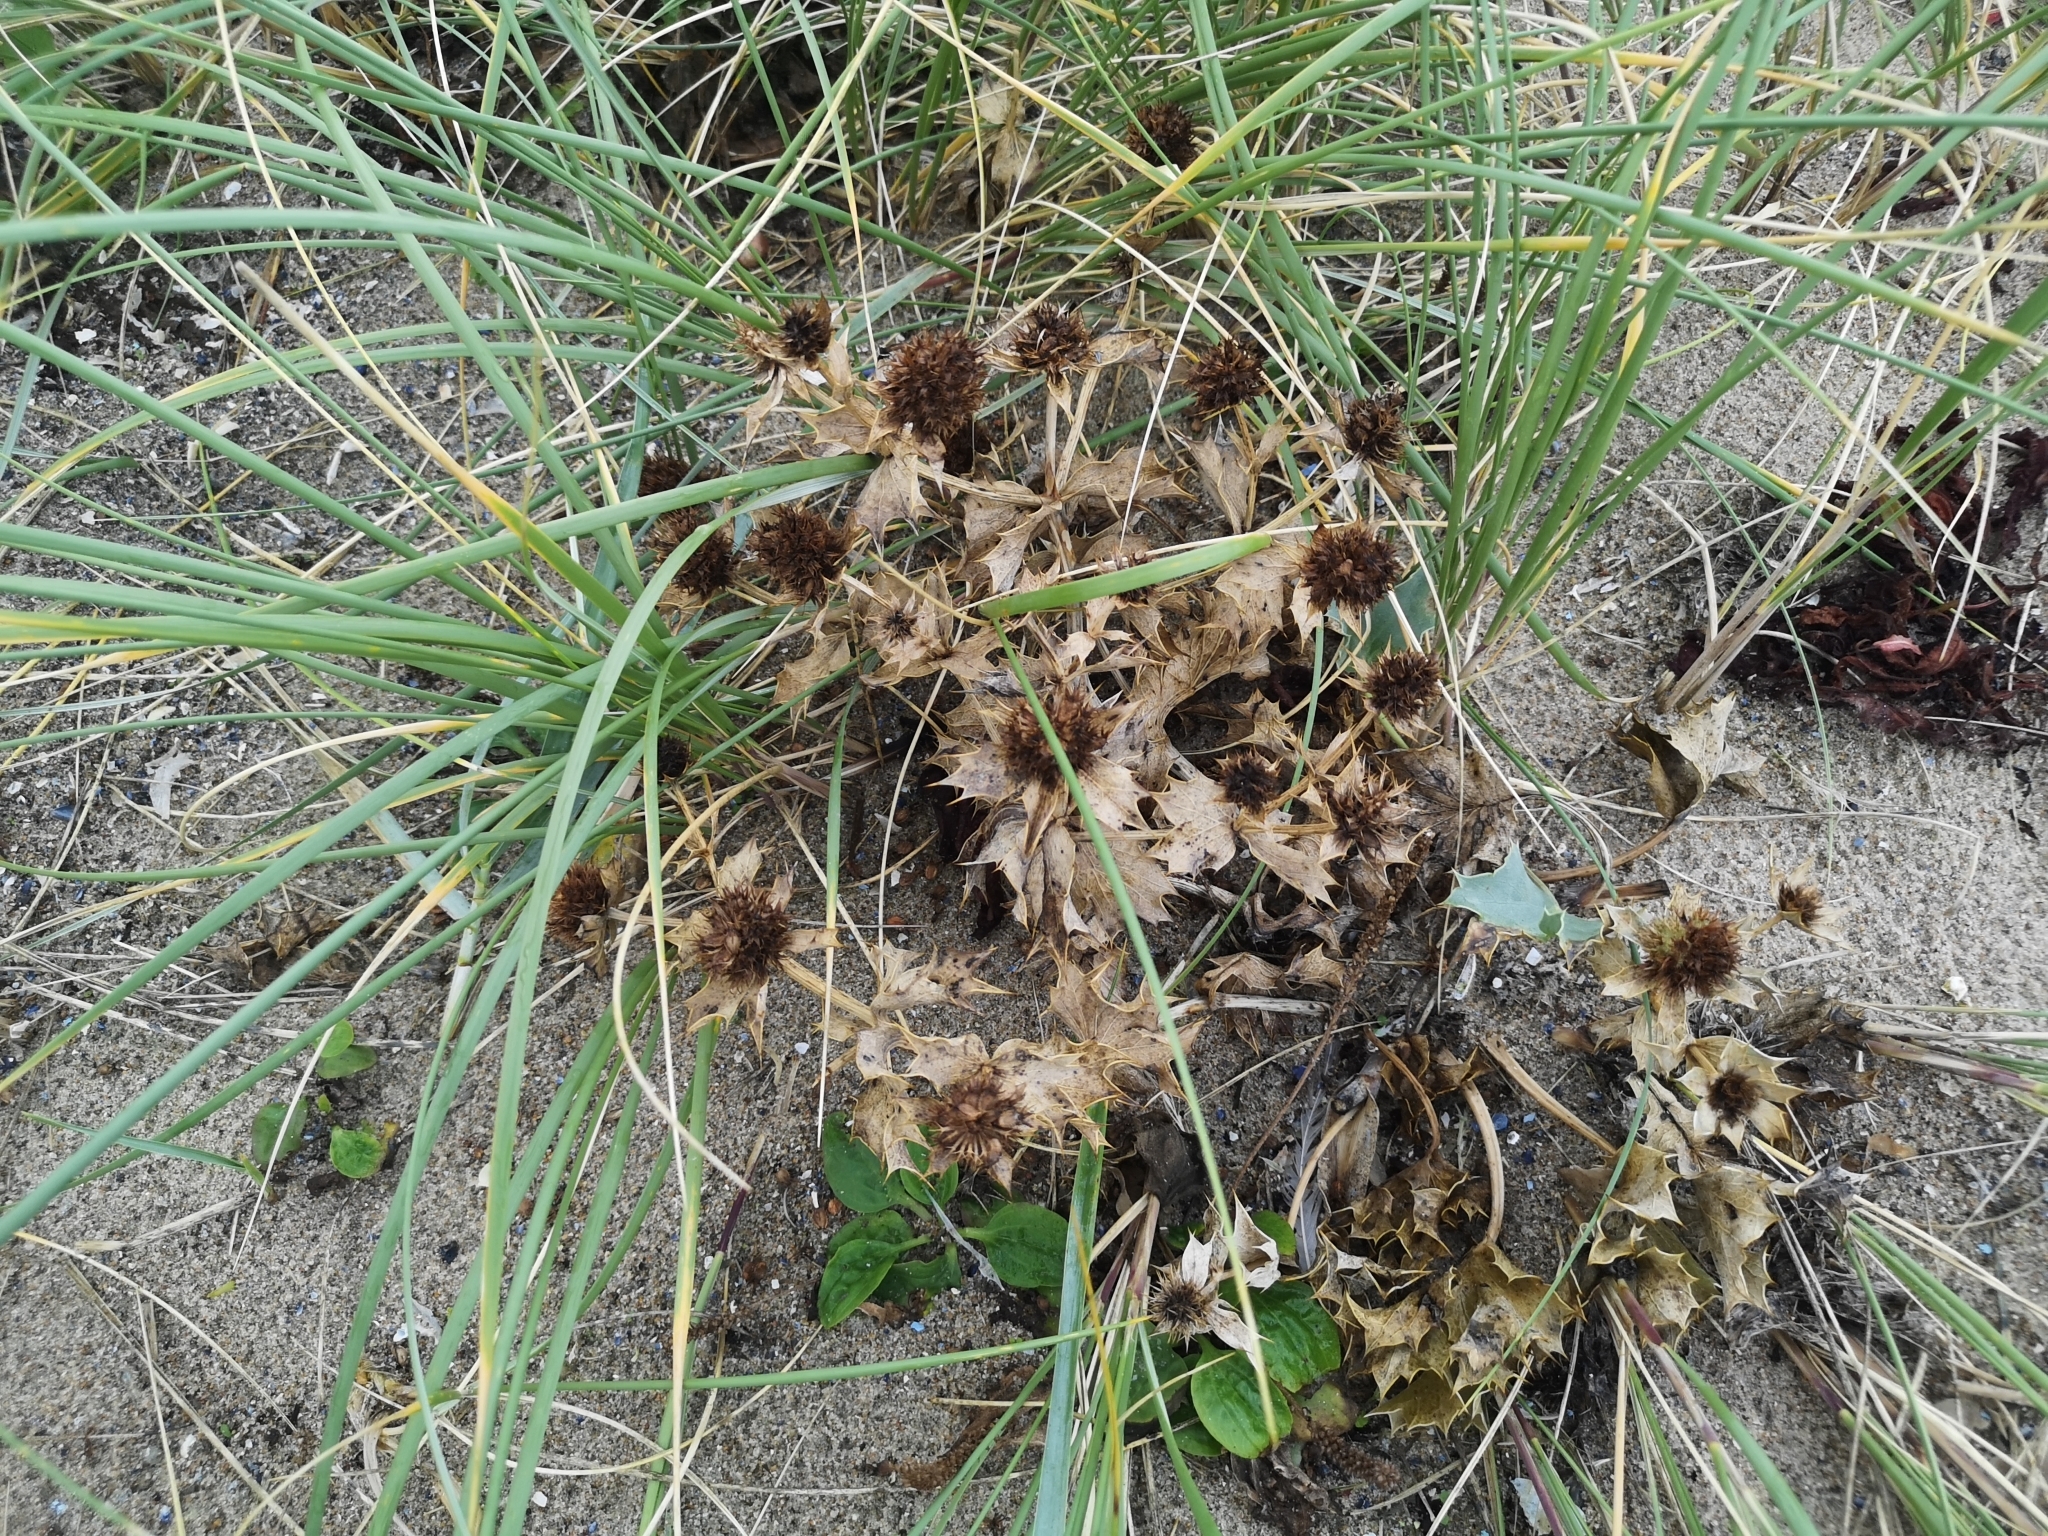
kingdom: Plantae
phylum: Tracheophyta
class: Magnoliopsida
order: Apiales
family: Apiaceae
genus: Eryngium
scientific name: Eryngium maritimum
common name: Sea-holly
